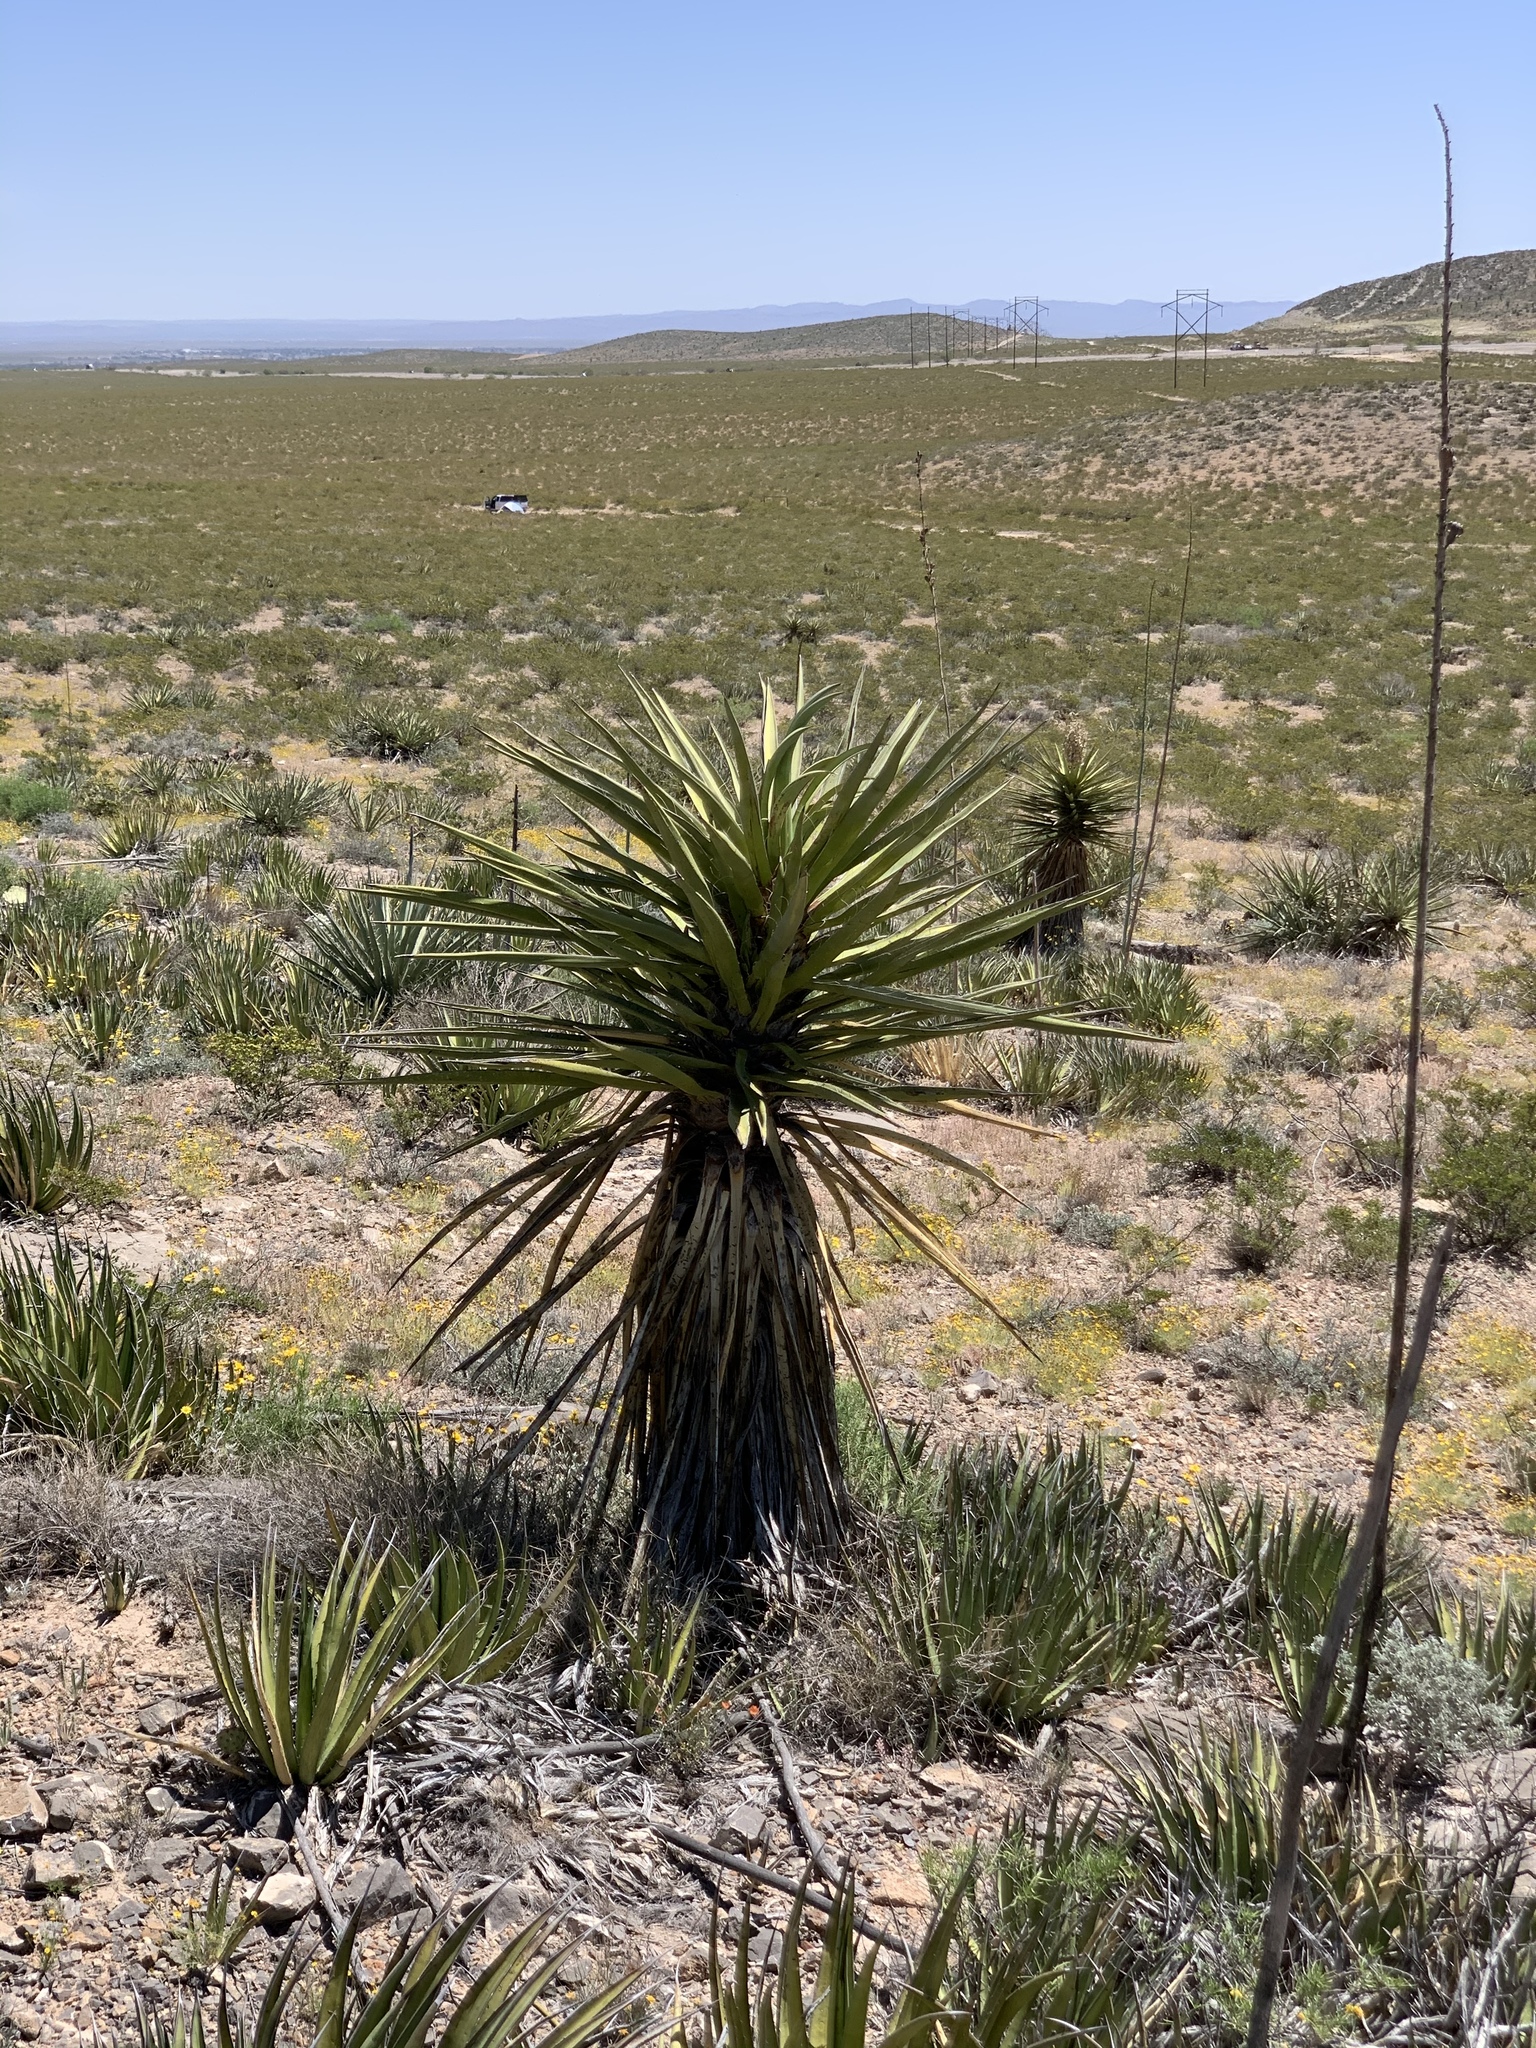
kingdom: Plantae
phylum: Tracheophyta
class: Liliopsida
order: Asparagales
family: Asparagaceae
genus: Yucca
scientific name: Yucca treculiana
